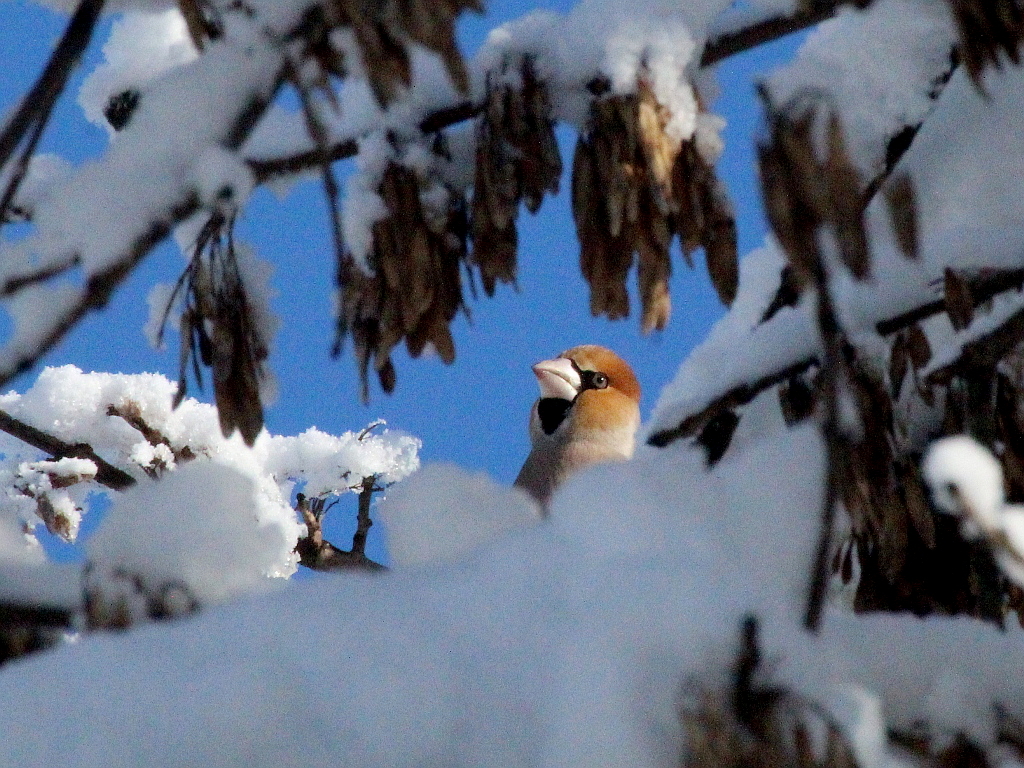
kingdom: Animalia
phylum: Chordata
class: Aves
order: Passeriformes
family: Fringillidae
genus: Coccothraustes
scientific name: Coccothraustes coccothraustes
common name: Hawfinch
